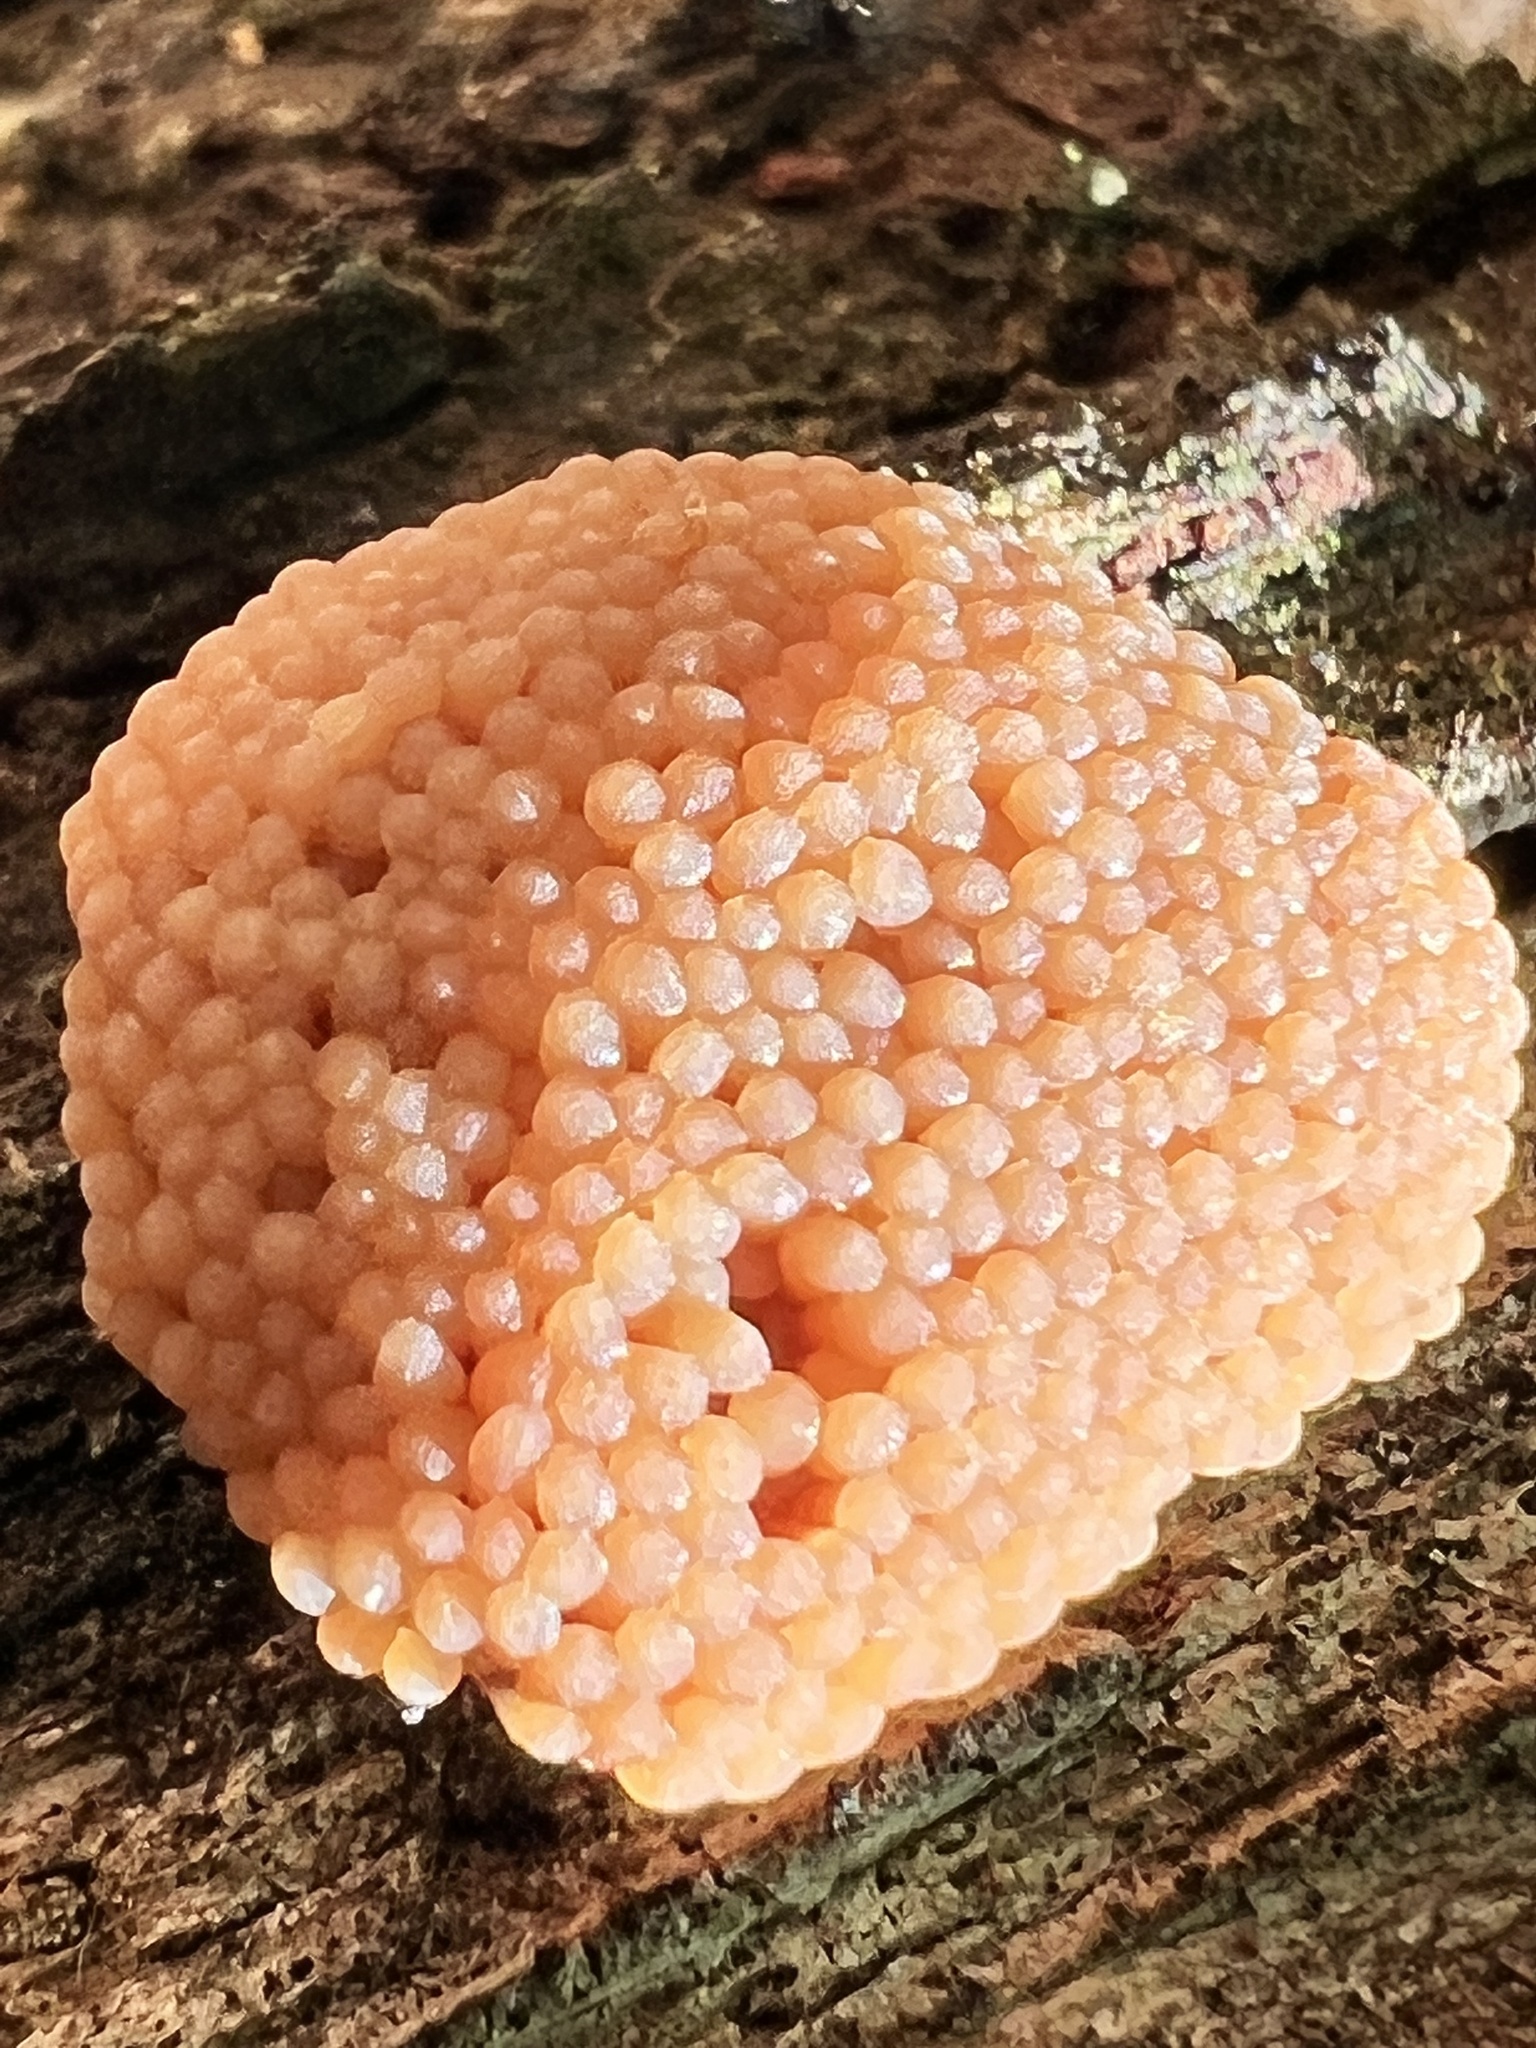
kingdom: Protozoa
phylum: Mycetozoa
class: Myxomycetes
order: Cribrariales
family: Tubiferaceae
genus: Tubifera
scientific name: Tubifera ferruginosa
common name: Red raspberry slime mold
